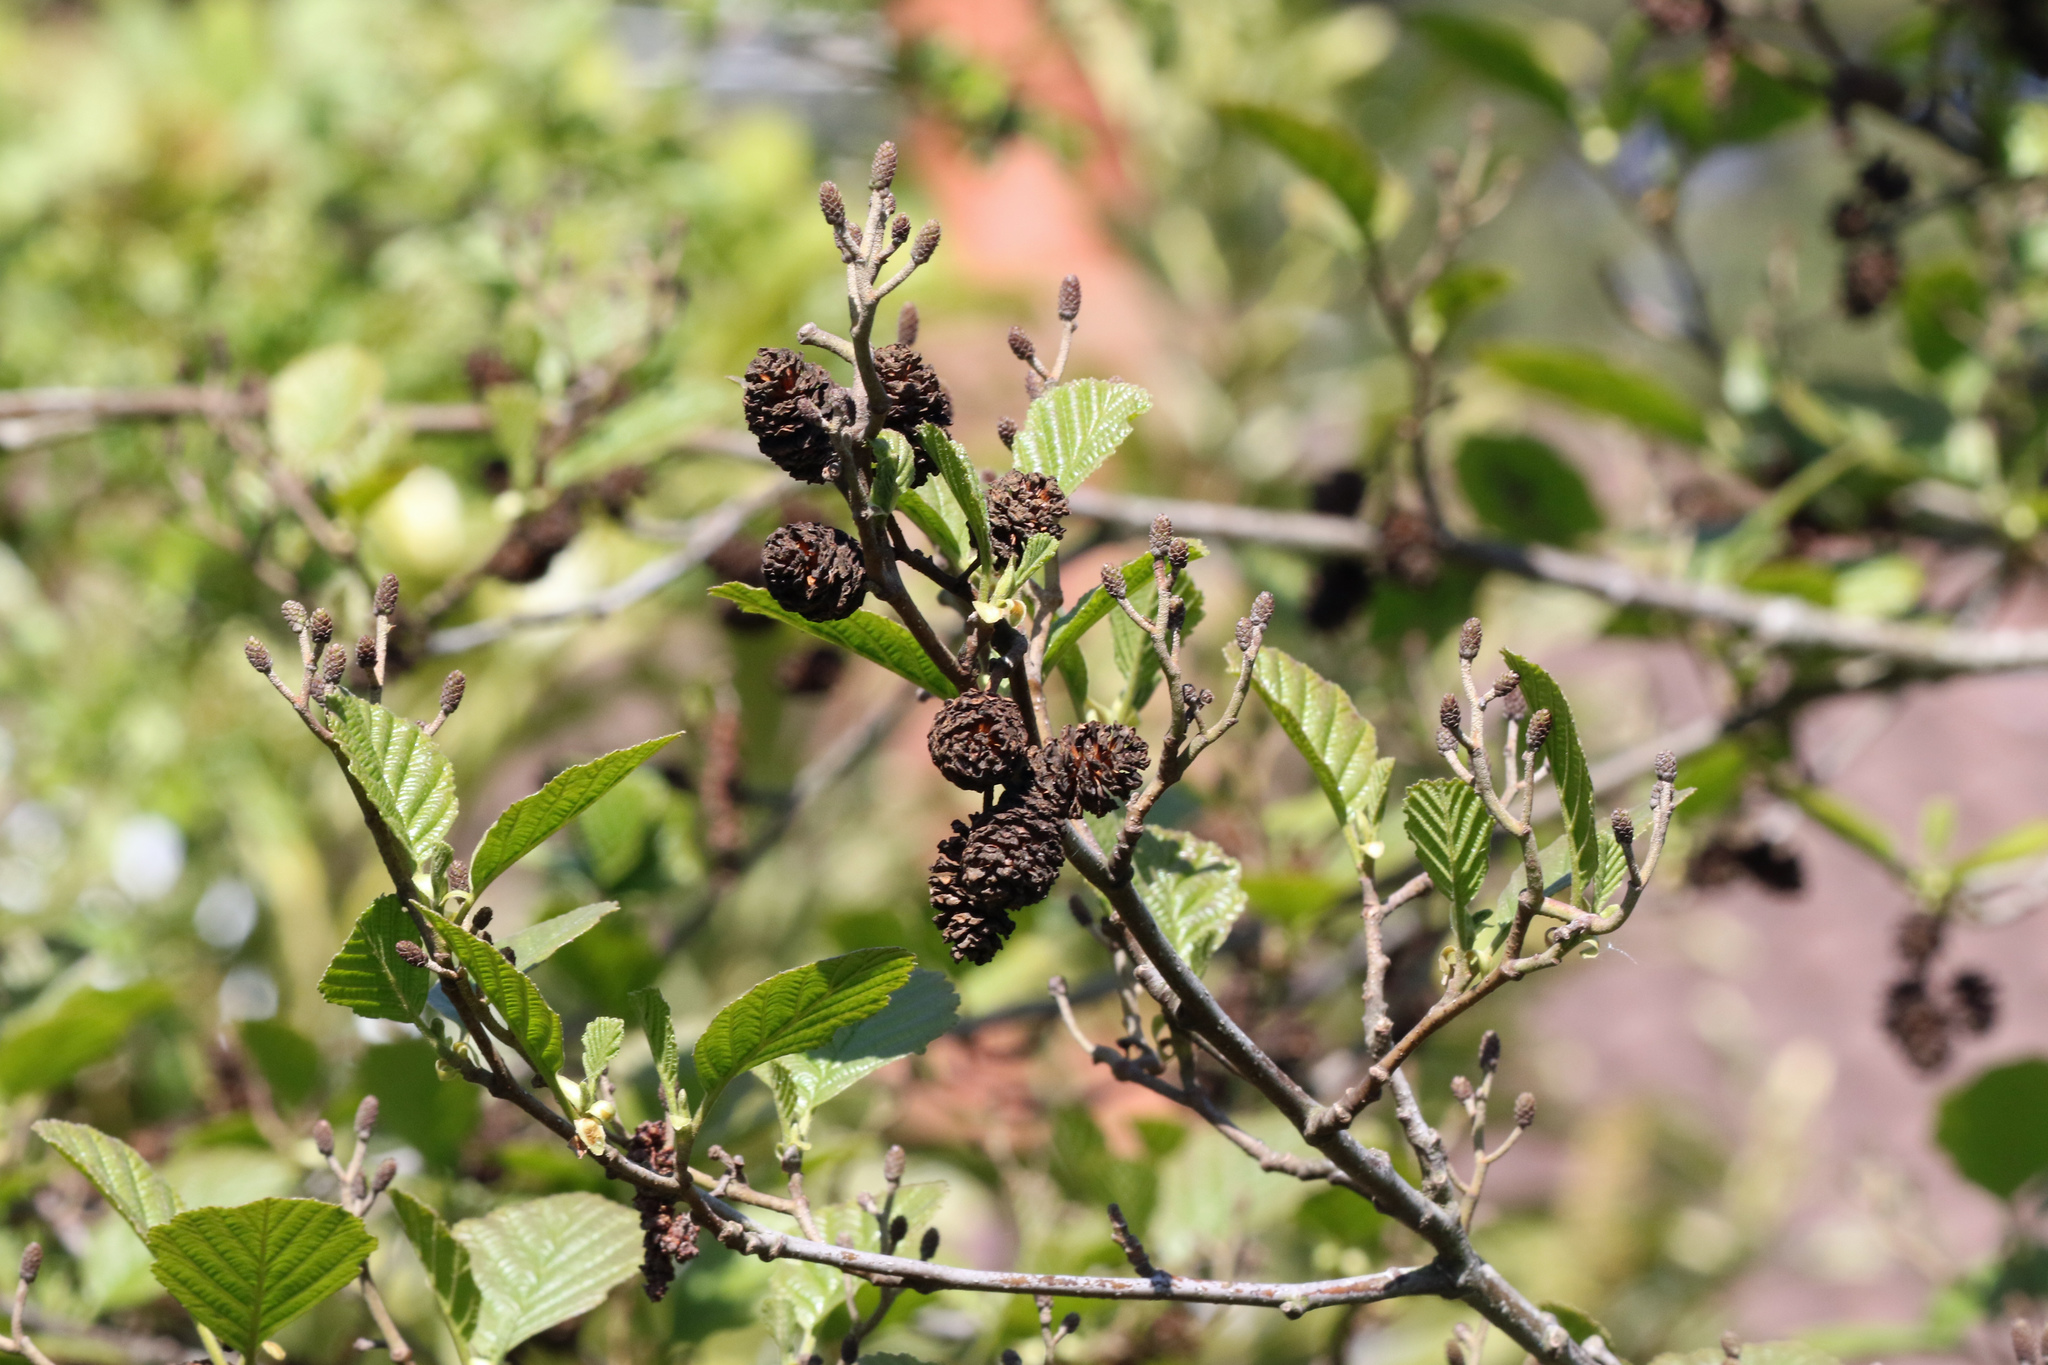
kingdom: Plantae
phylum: Tracheophyta
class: Magnoliopsida
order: Fagales
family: Betulaceae
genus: Alnus
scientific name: Alnus
